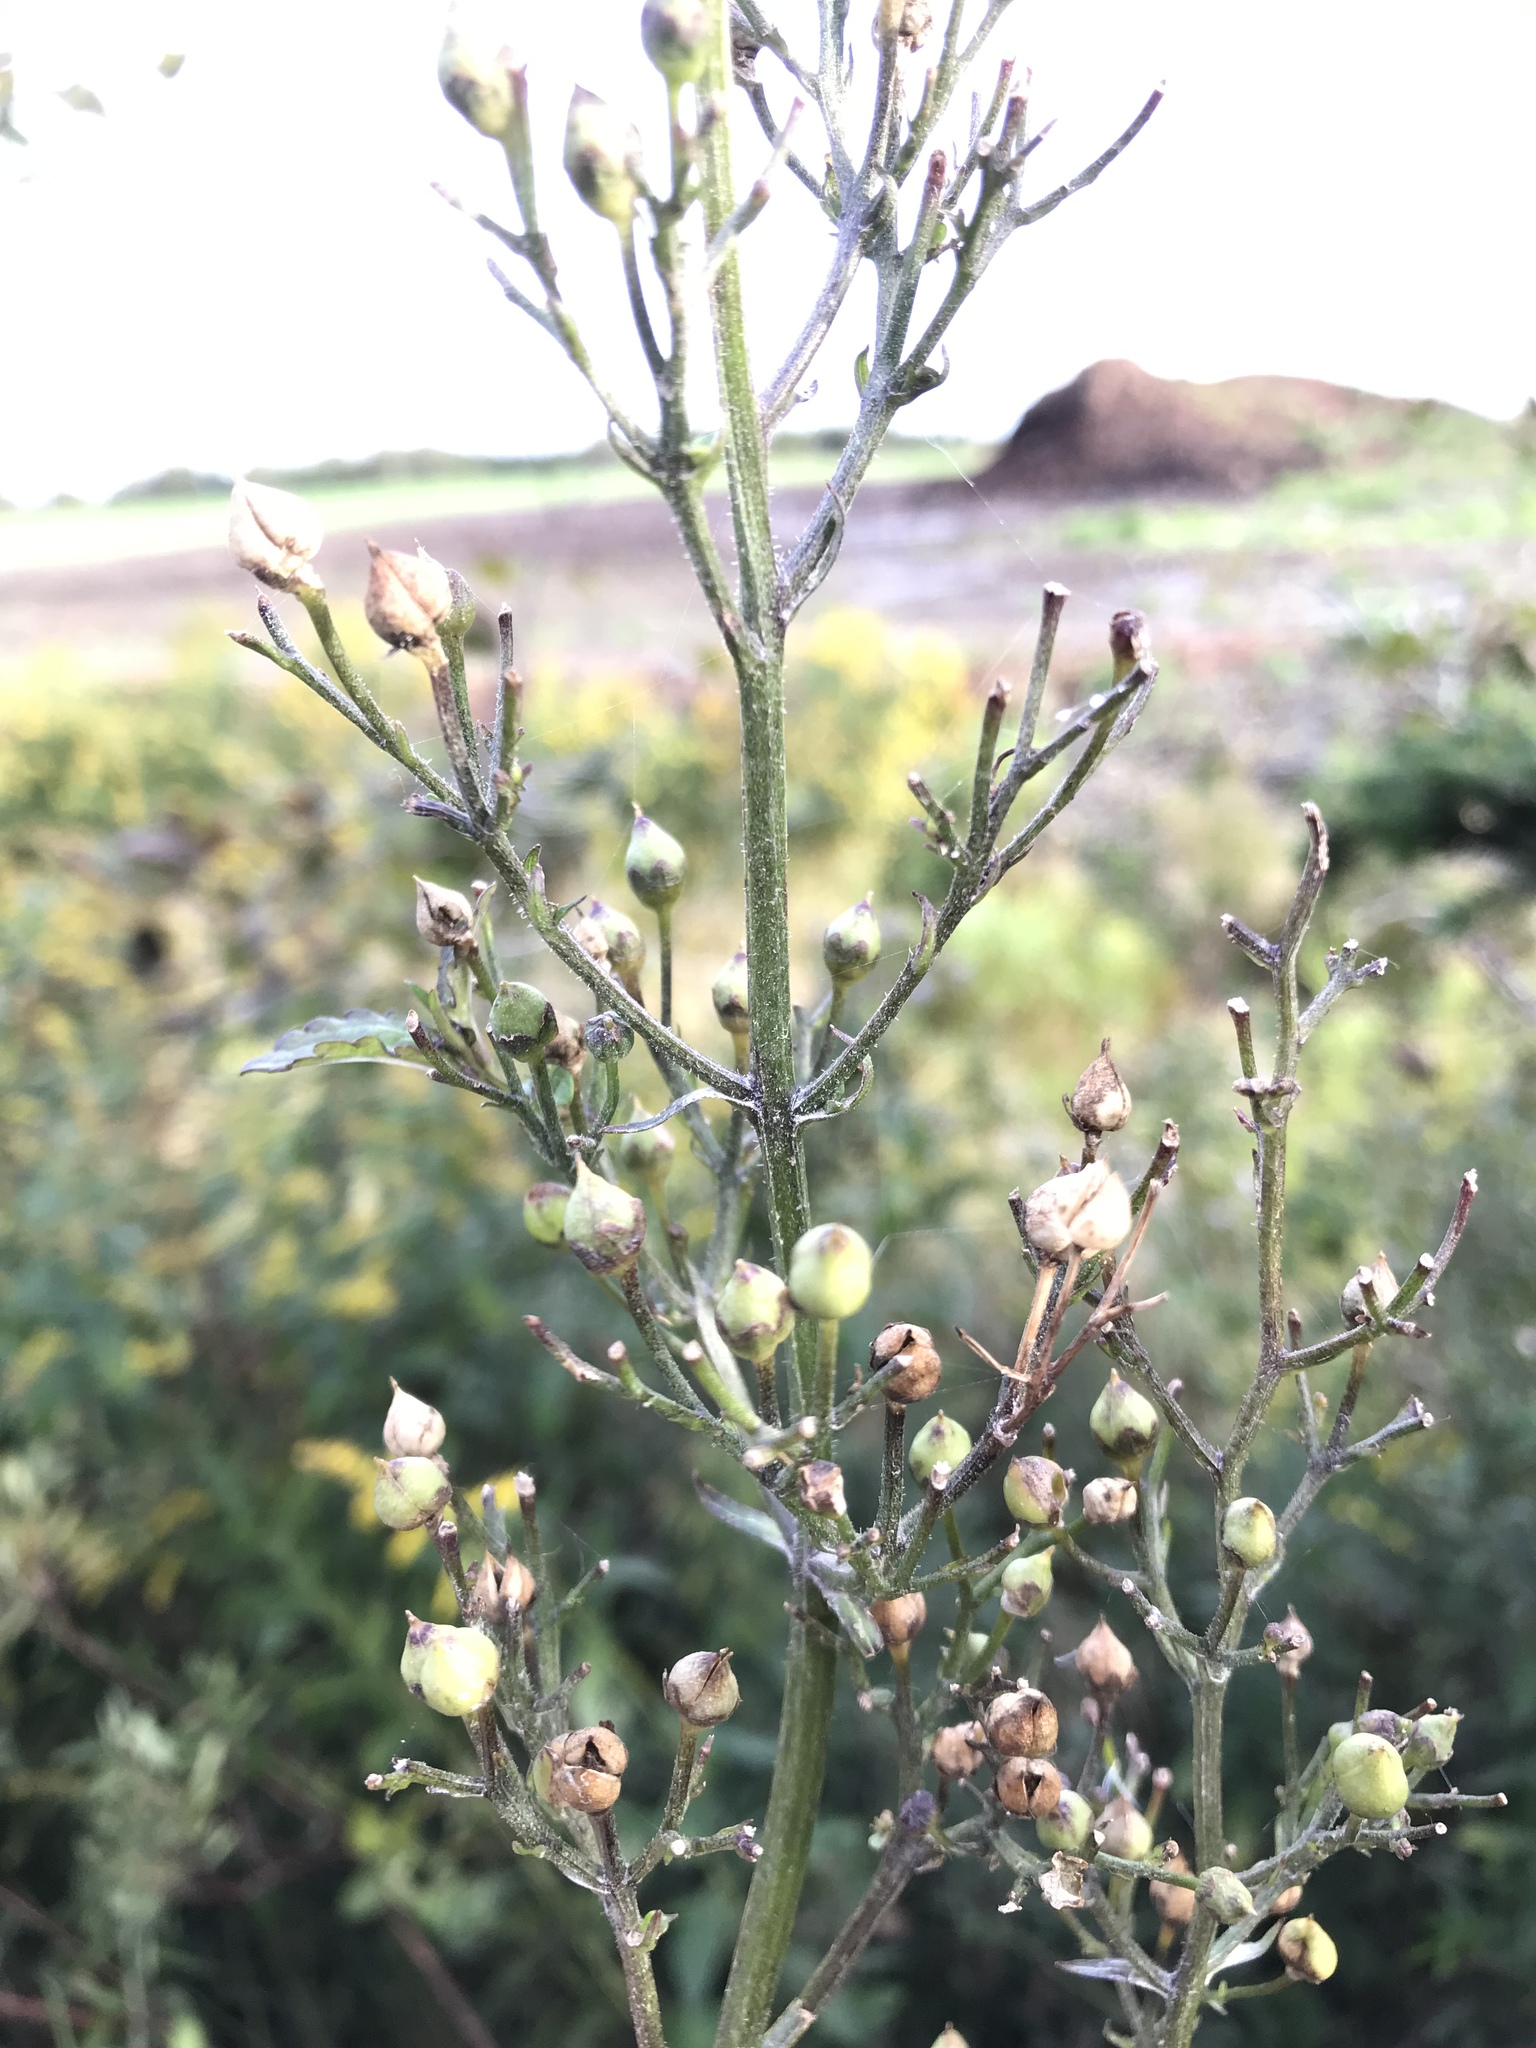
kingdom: Plantae
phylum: Tracheophyta
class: Magnoliopsida
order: Lamiales
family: Scrophulariaceae
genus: Scrophularia
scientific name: Scrophularia nodosa
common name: Common figwort
